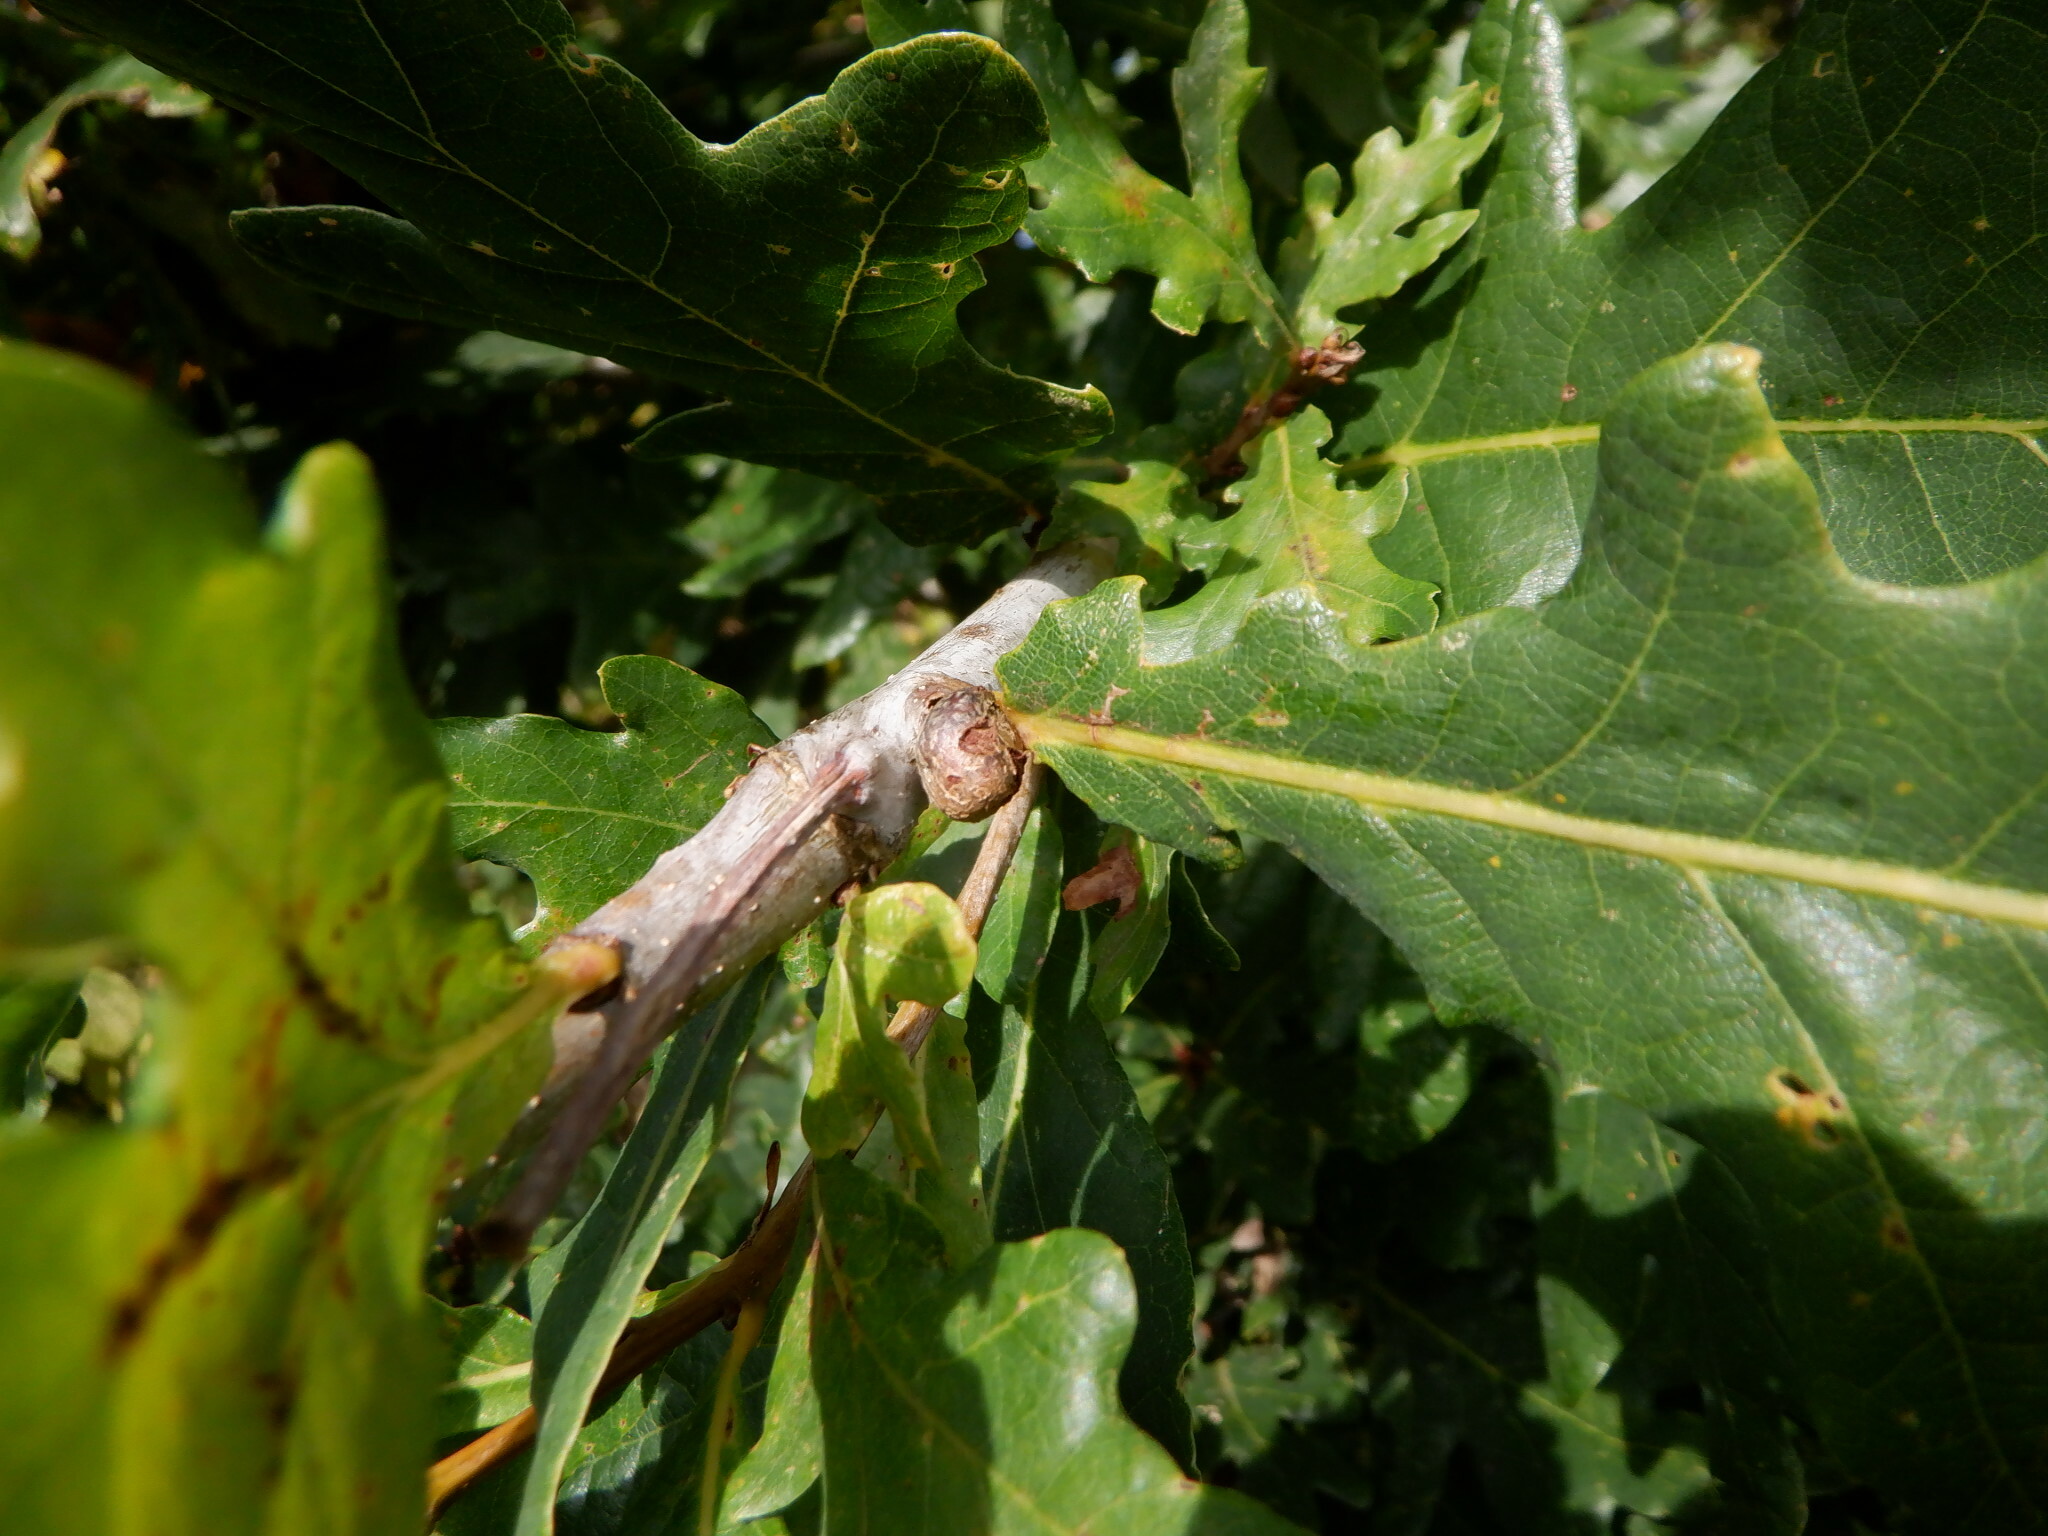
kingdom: Animalia
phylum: Arthropoda
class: Insecta
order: Hymenoptera
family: Cynipidae
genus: Andricus
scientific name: Andricus lignicolus
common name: Cola-nut gall
